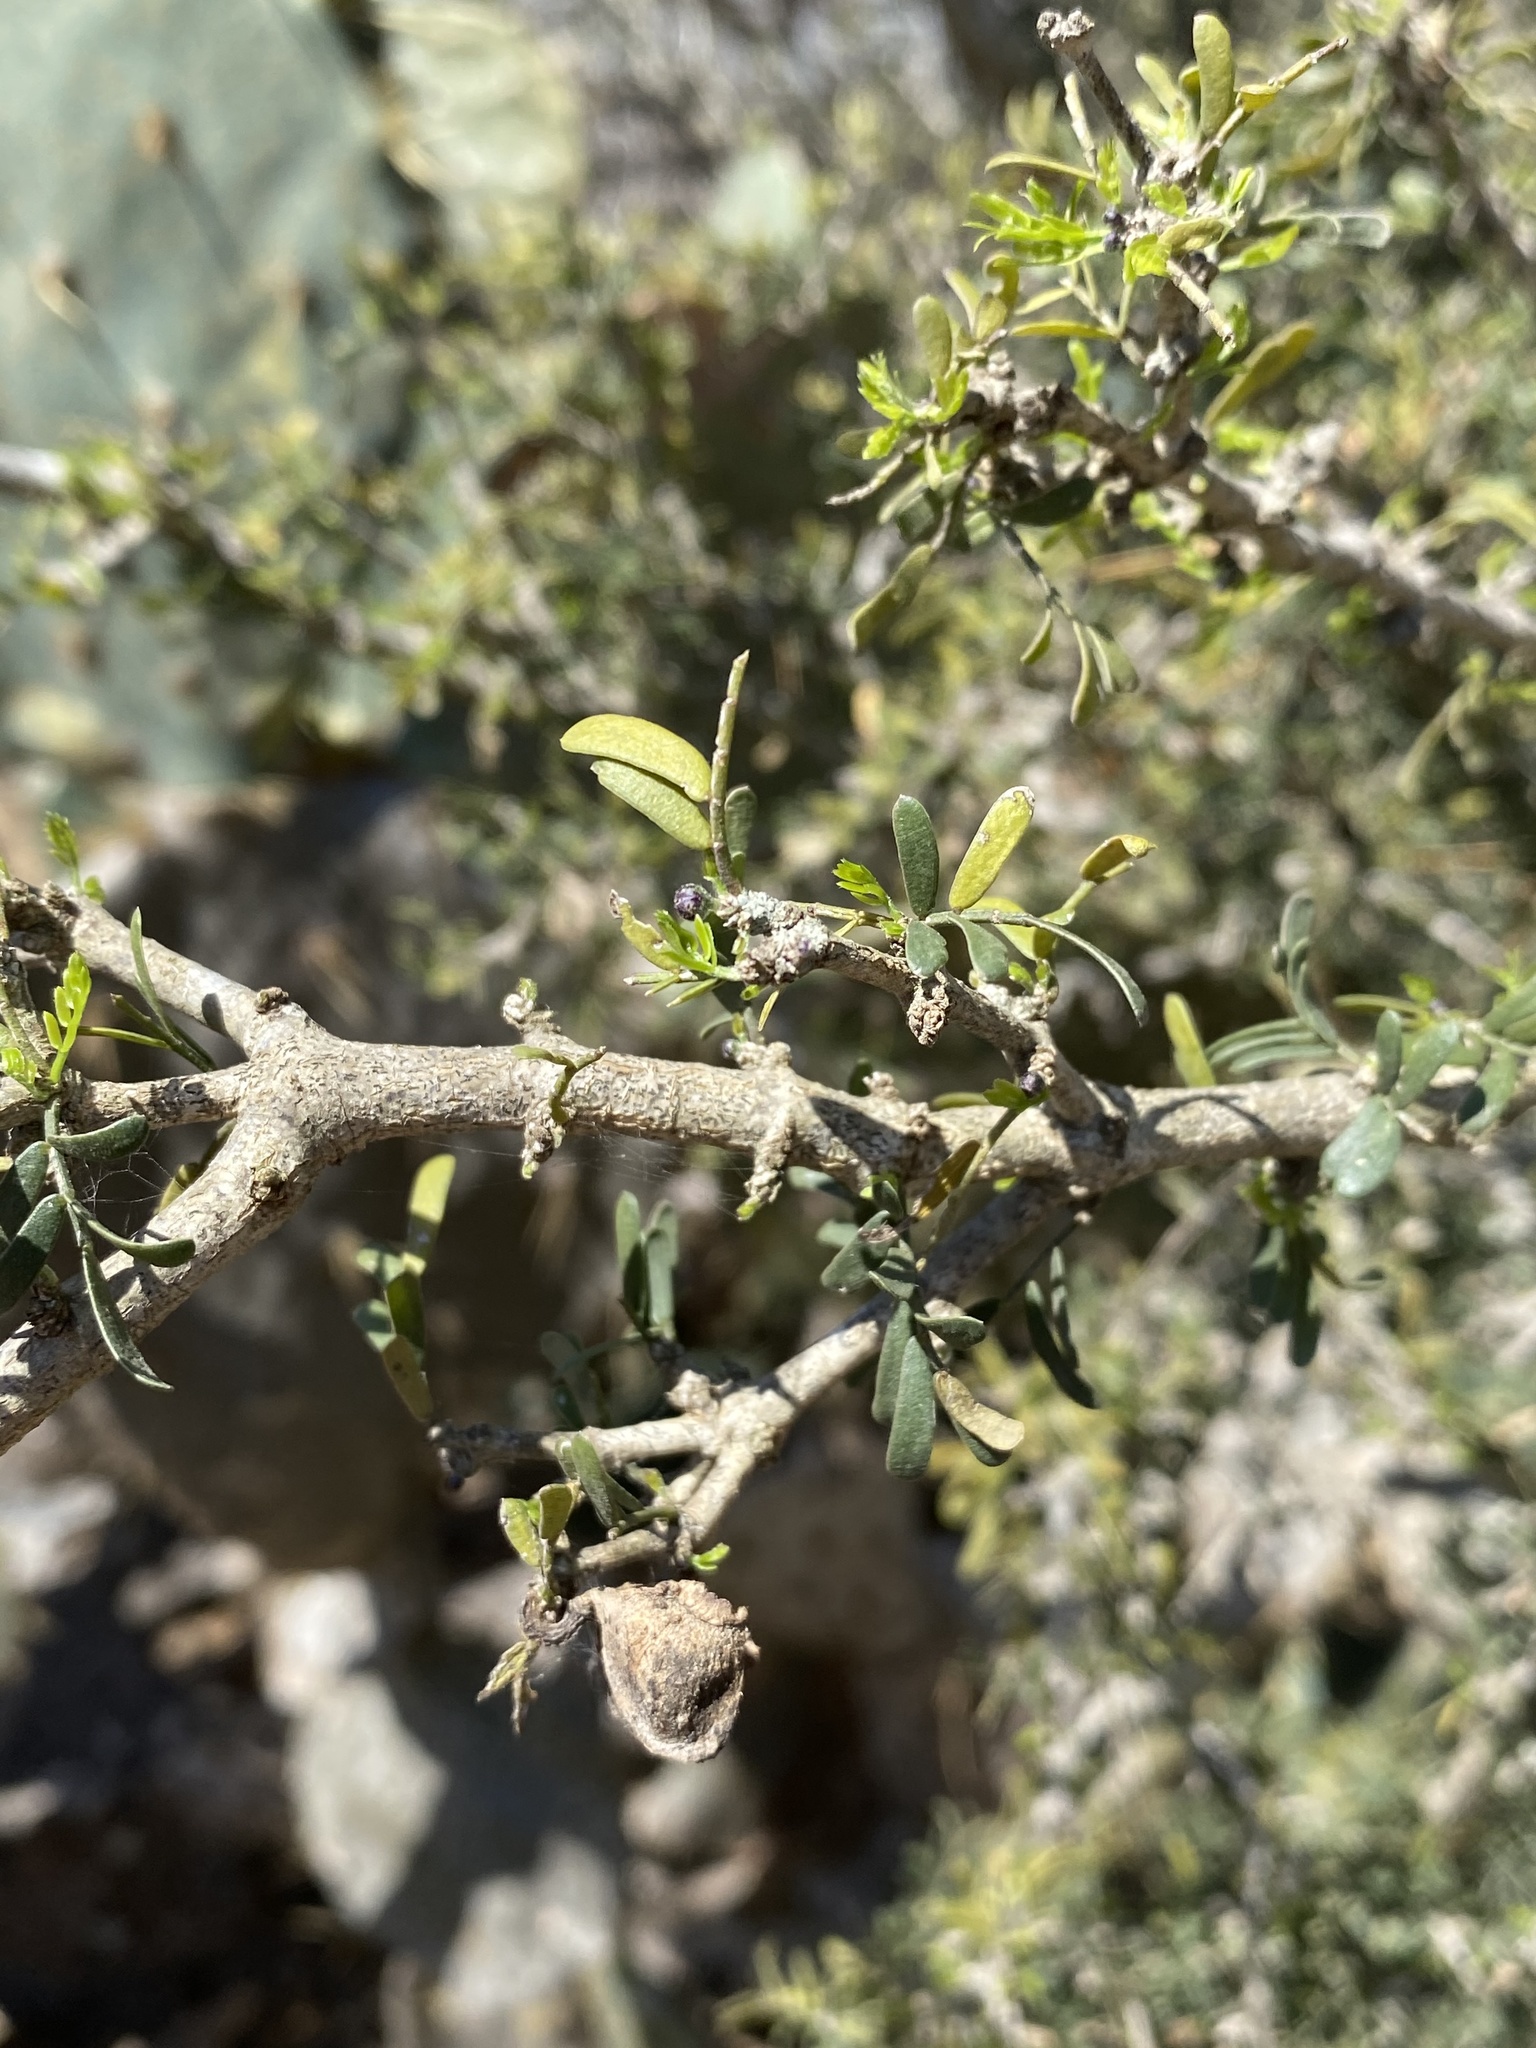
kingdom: Plantae
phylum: Tracheophyta
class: Magnoliopsida
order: Zygophyllales
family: Zygophyllaceae
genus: Porlieria
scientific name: Porlieria angustifolia
